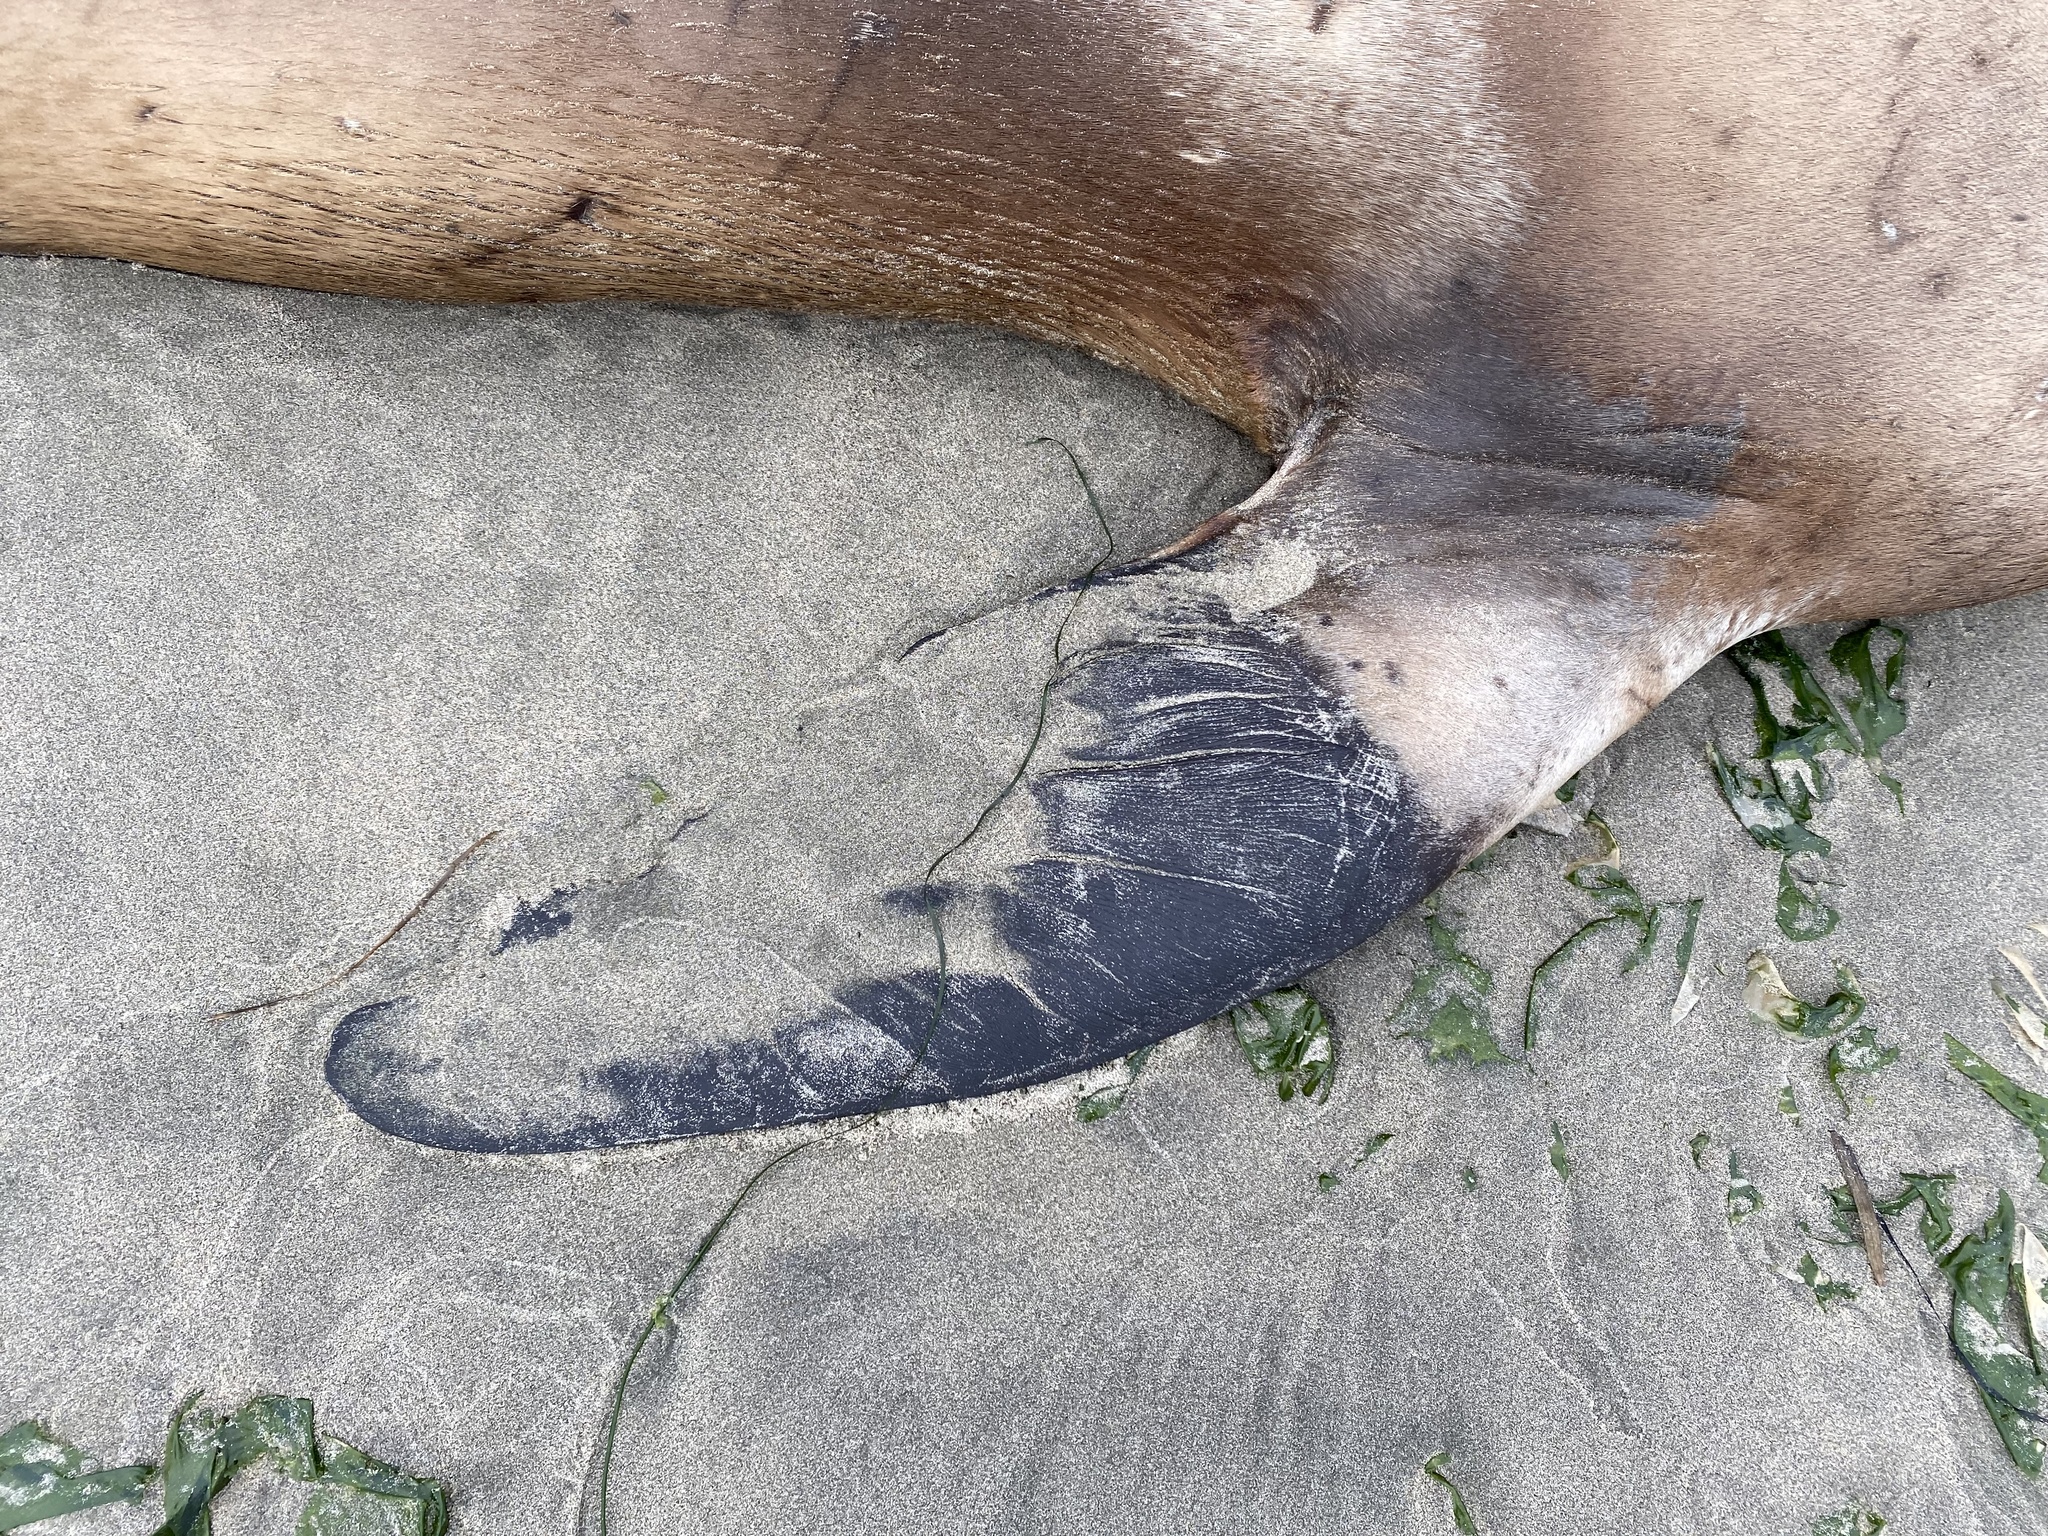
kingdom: Animalia
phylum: Chordata
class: Mammalia
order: Carnivora
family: Otariidae
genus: Zalophus
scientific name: Zalophus californianus
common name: California sea lion
